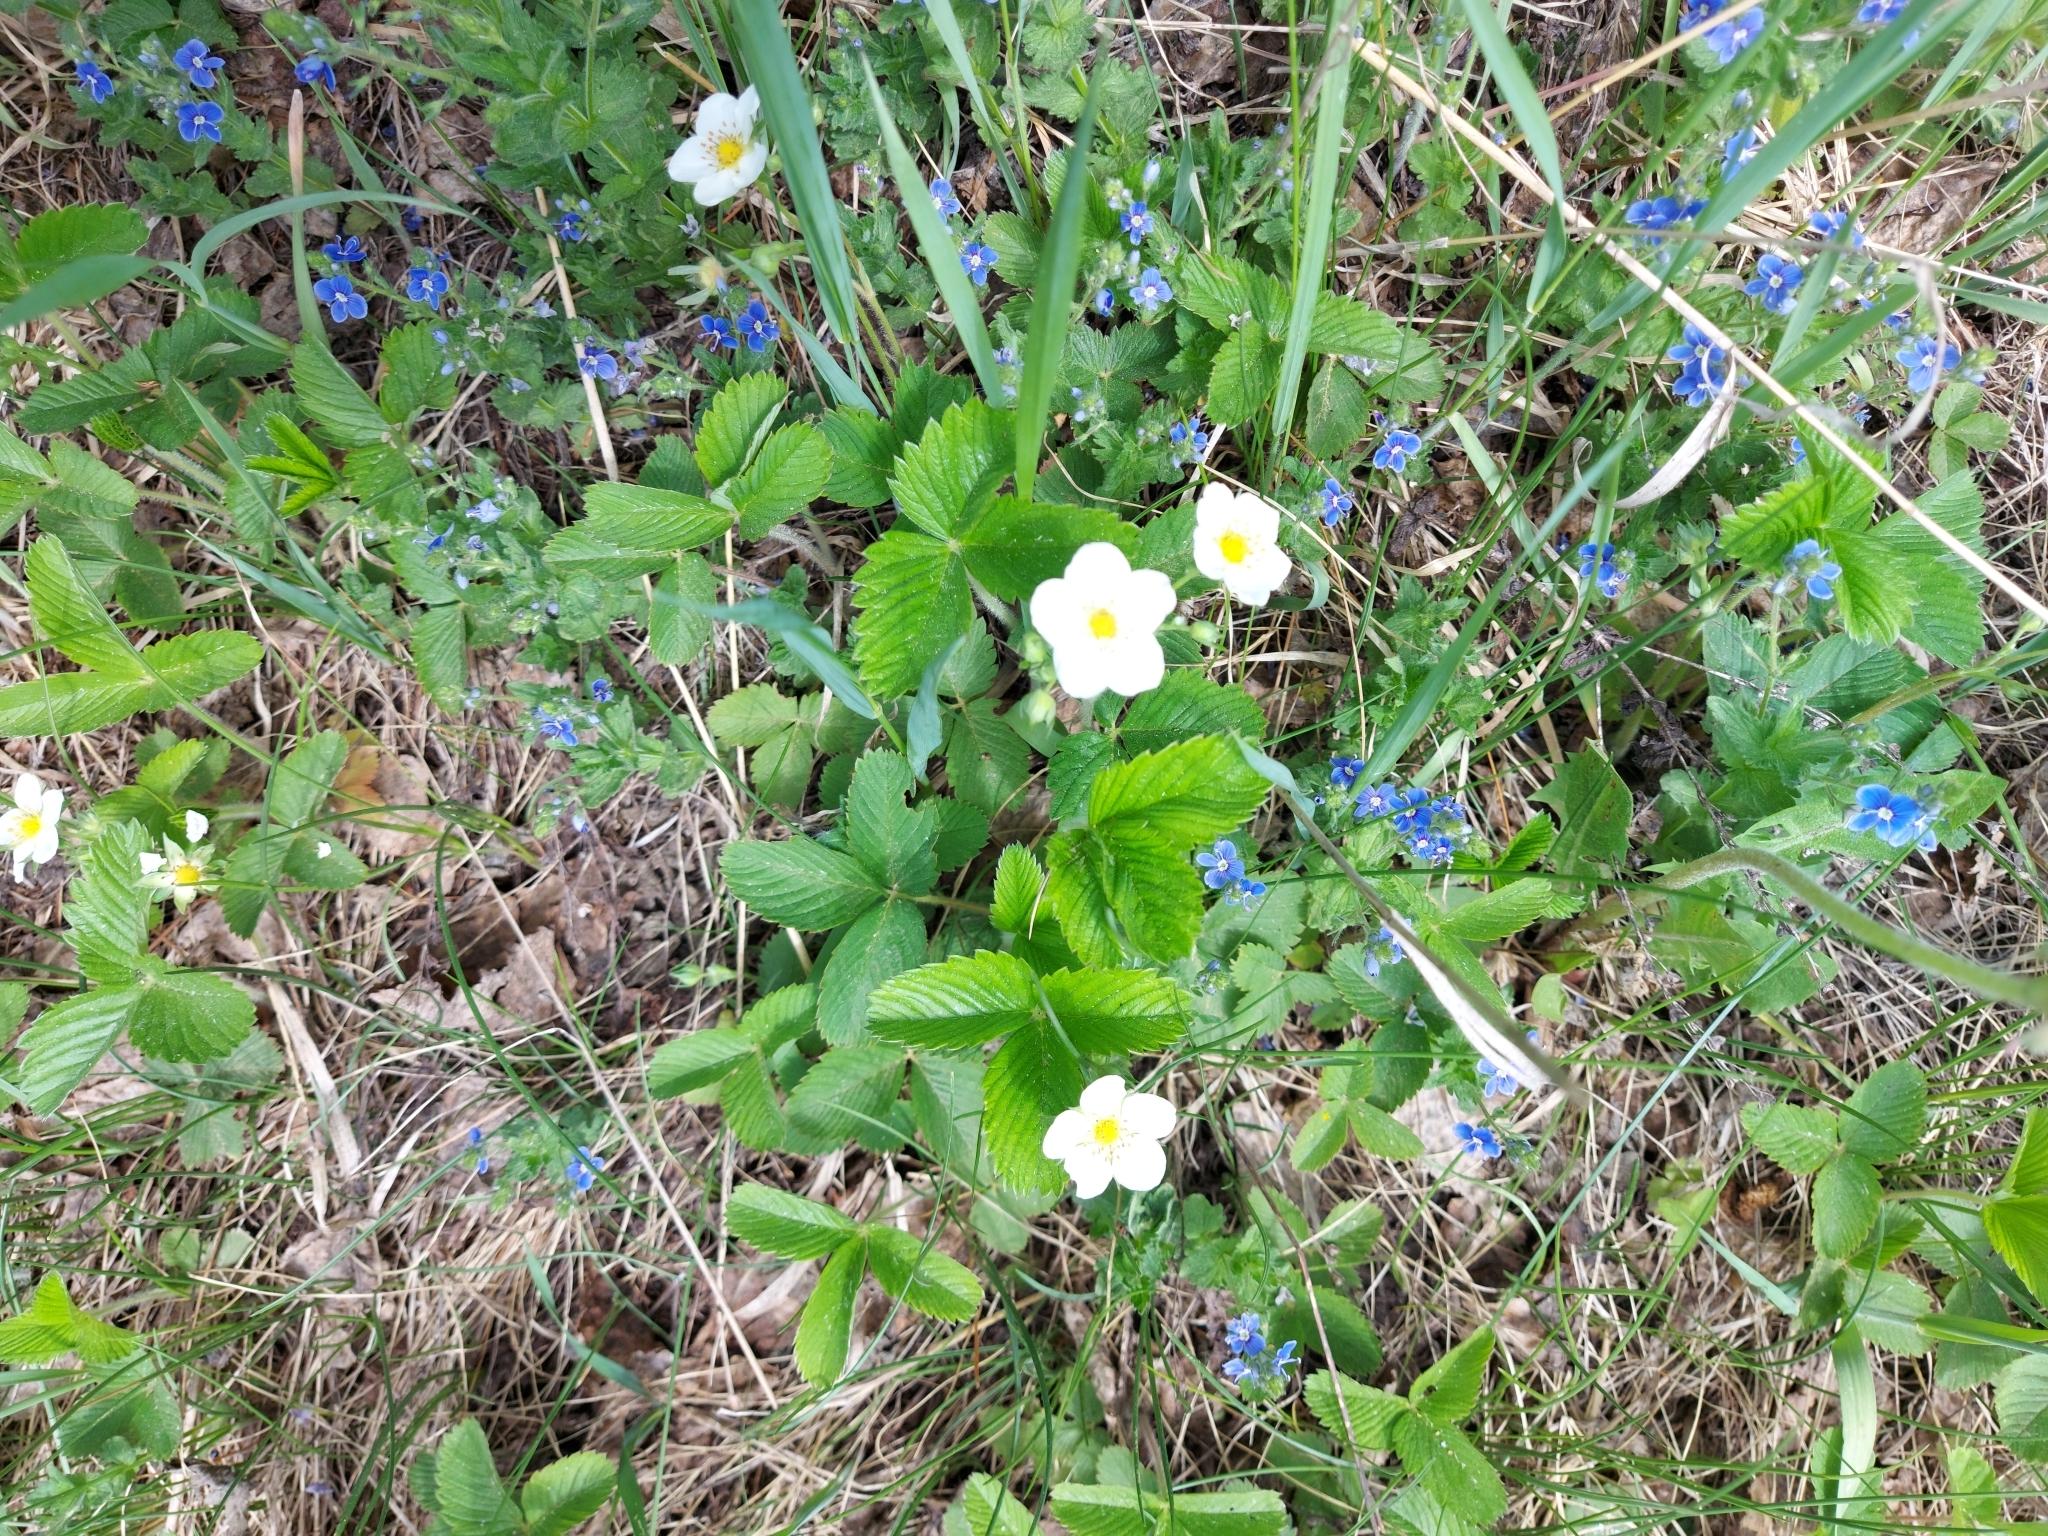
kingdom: Plantae
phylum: Tracheophyta
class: Magnoliopsida
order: Rosales
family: Rosaceae
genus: Fragaria
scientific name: Fragaria viridis
